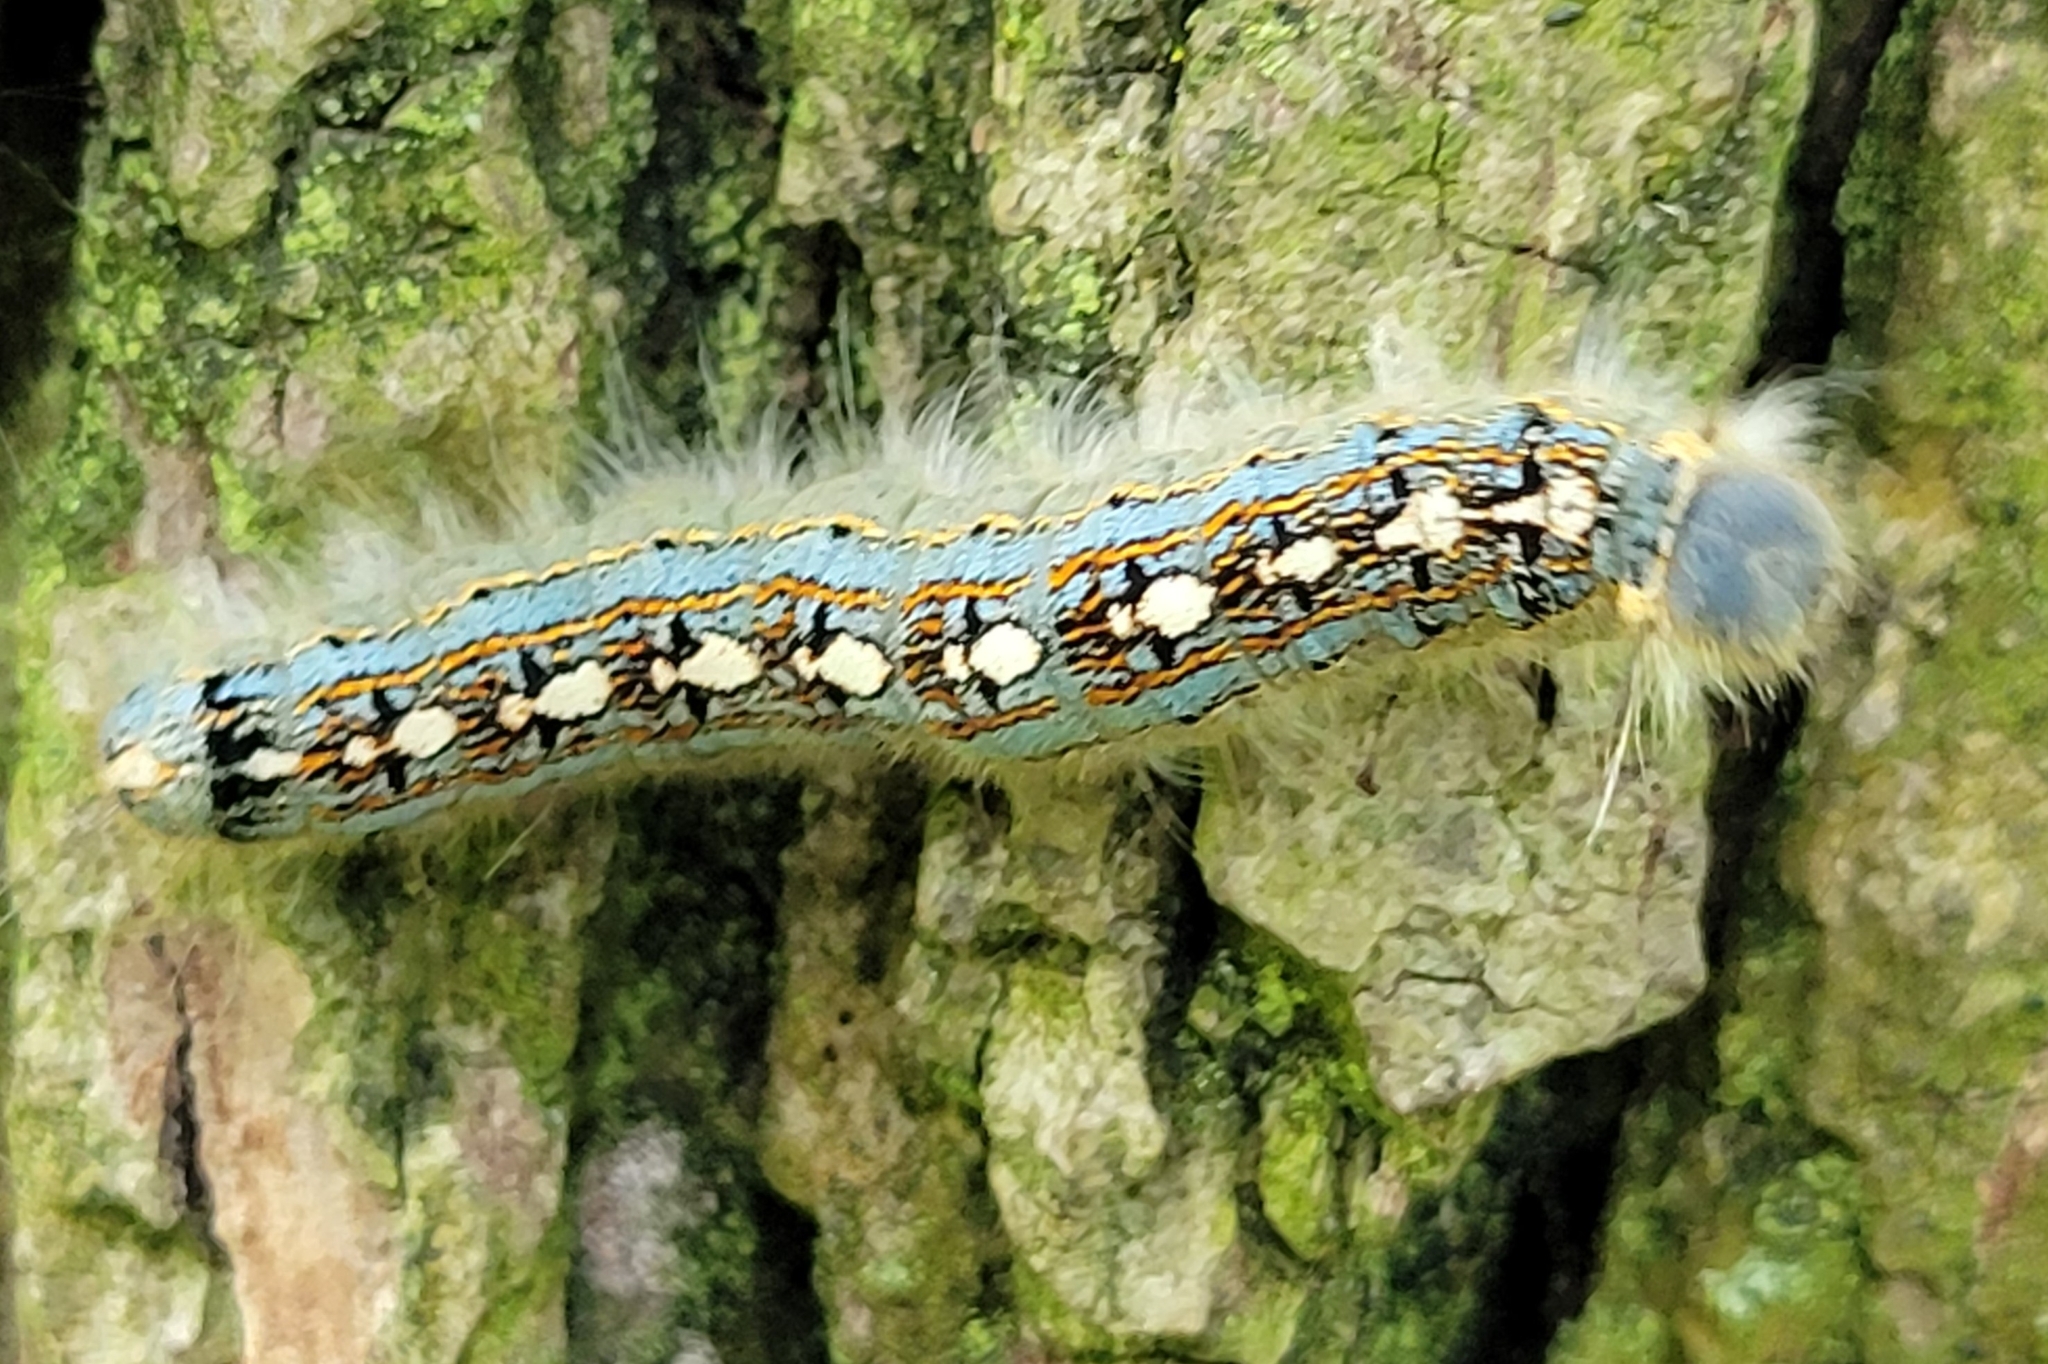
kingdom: Animalia
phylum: Arthropoda
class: Insecta
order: Lepidoptera
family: Lasiocampidae
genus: Malacosoma
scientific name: Malacosoma disstria
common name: Forest tent caterpillar
